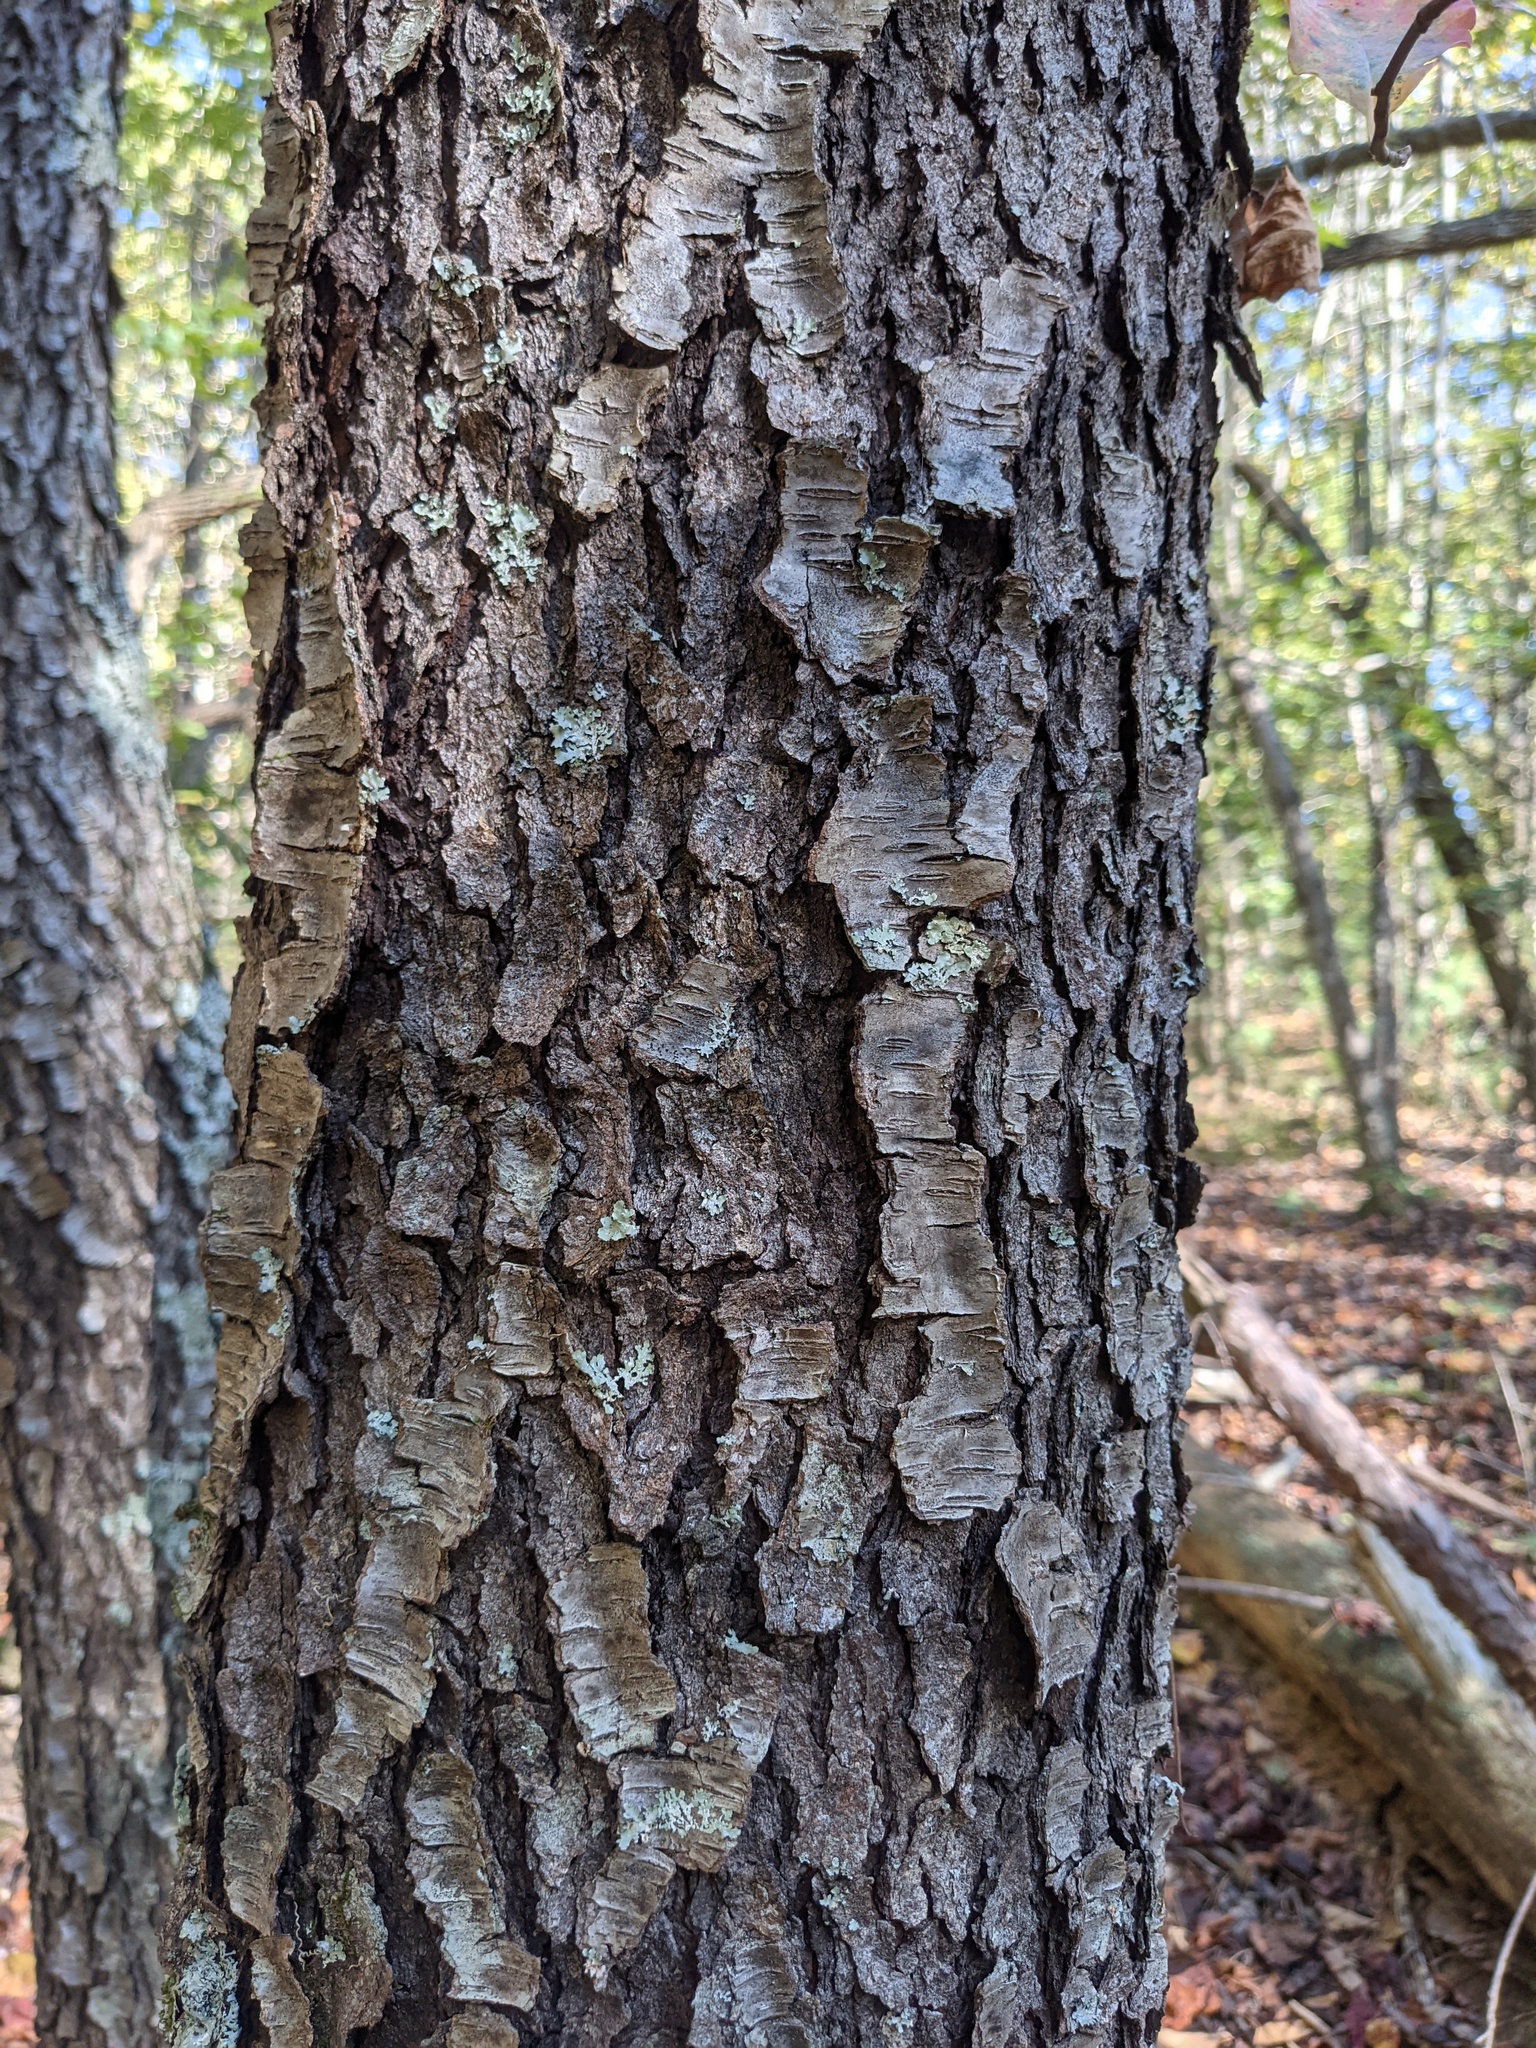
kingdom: Plantae
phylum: Tracheophyta
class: Magnoliopsida
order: Rosales
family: Rosaceae
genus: Prunus
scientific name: Prunus serotina
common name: Black cherry
